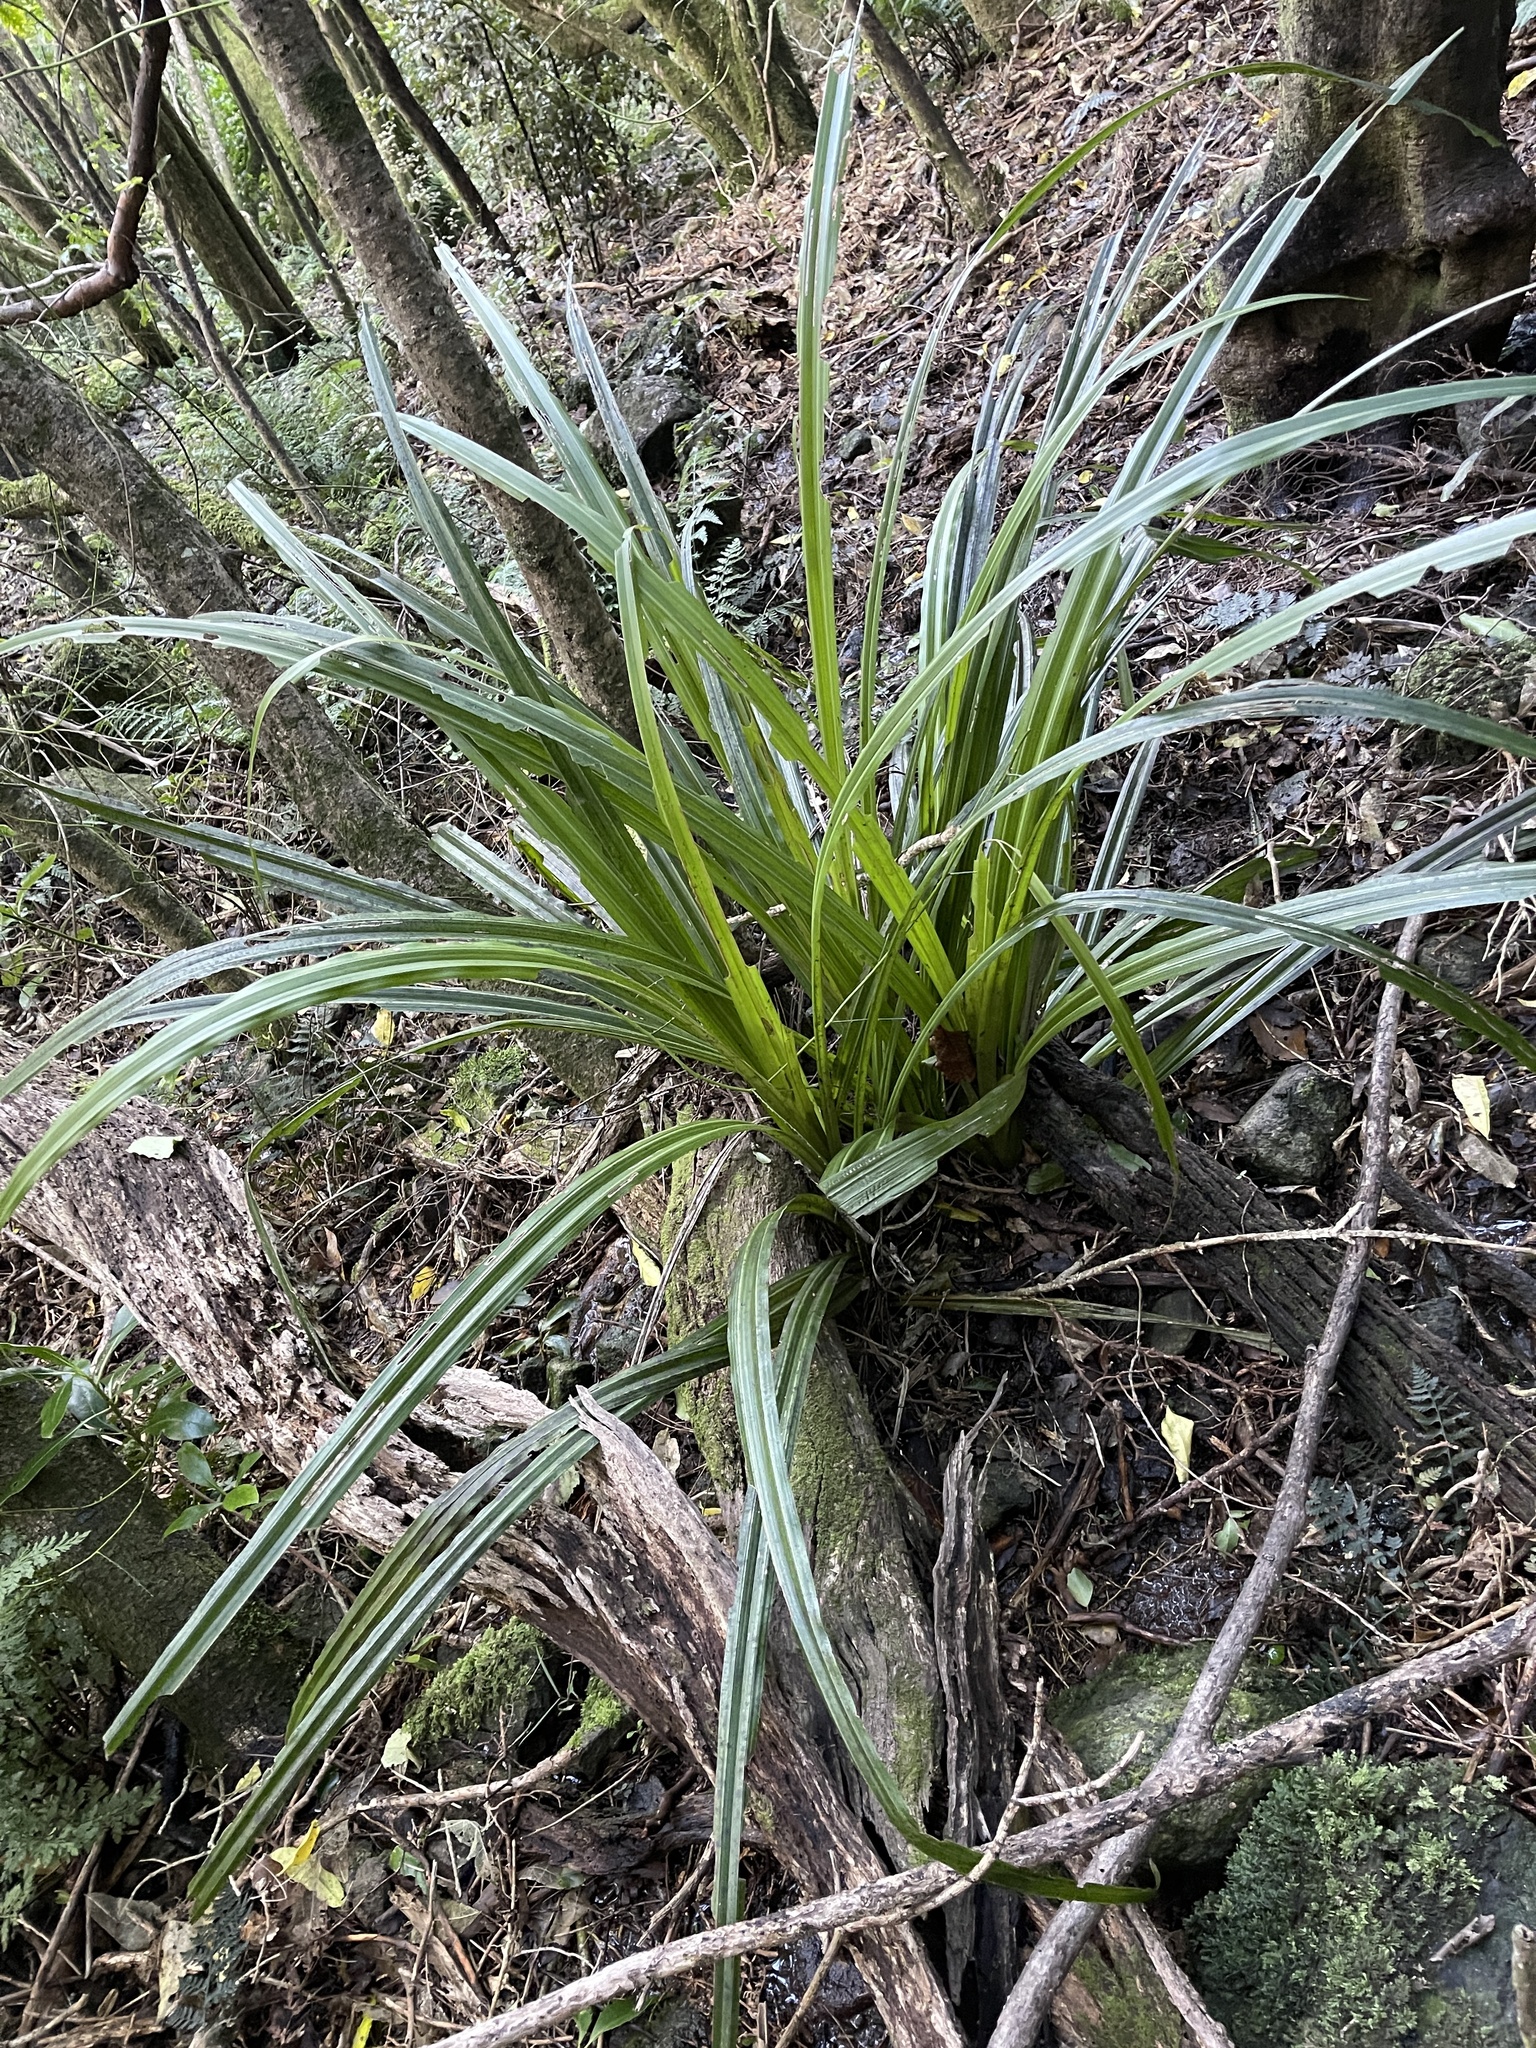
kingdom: Plantae
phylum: Tracheophyta
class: Liliopsida
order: Asparagales
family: Asteliaceae
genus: Astelia
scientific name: Astelia fragrans
